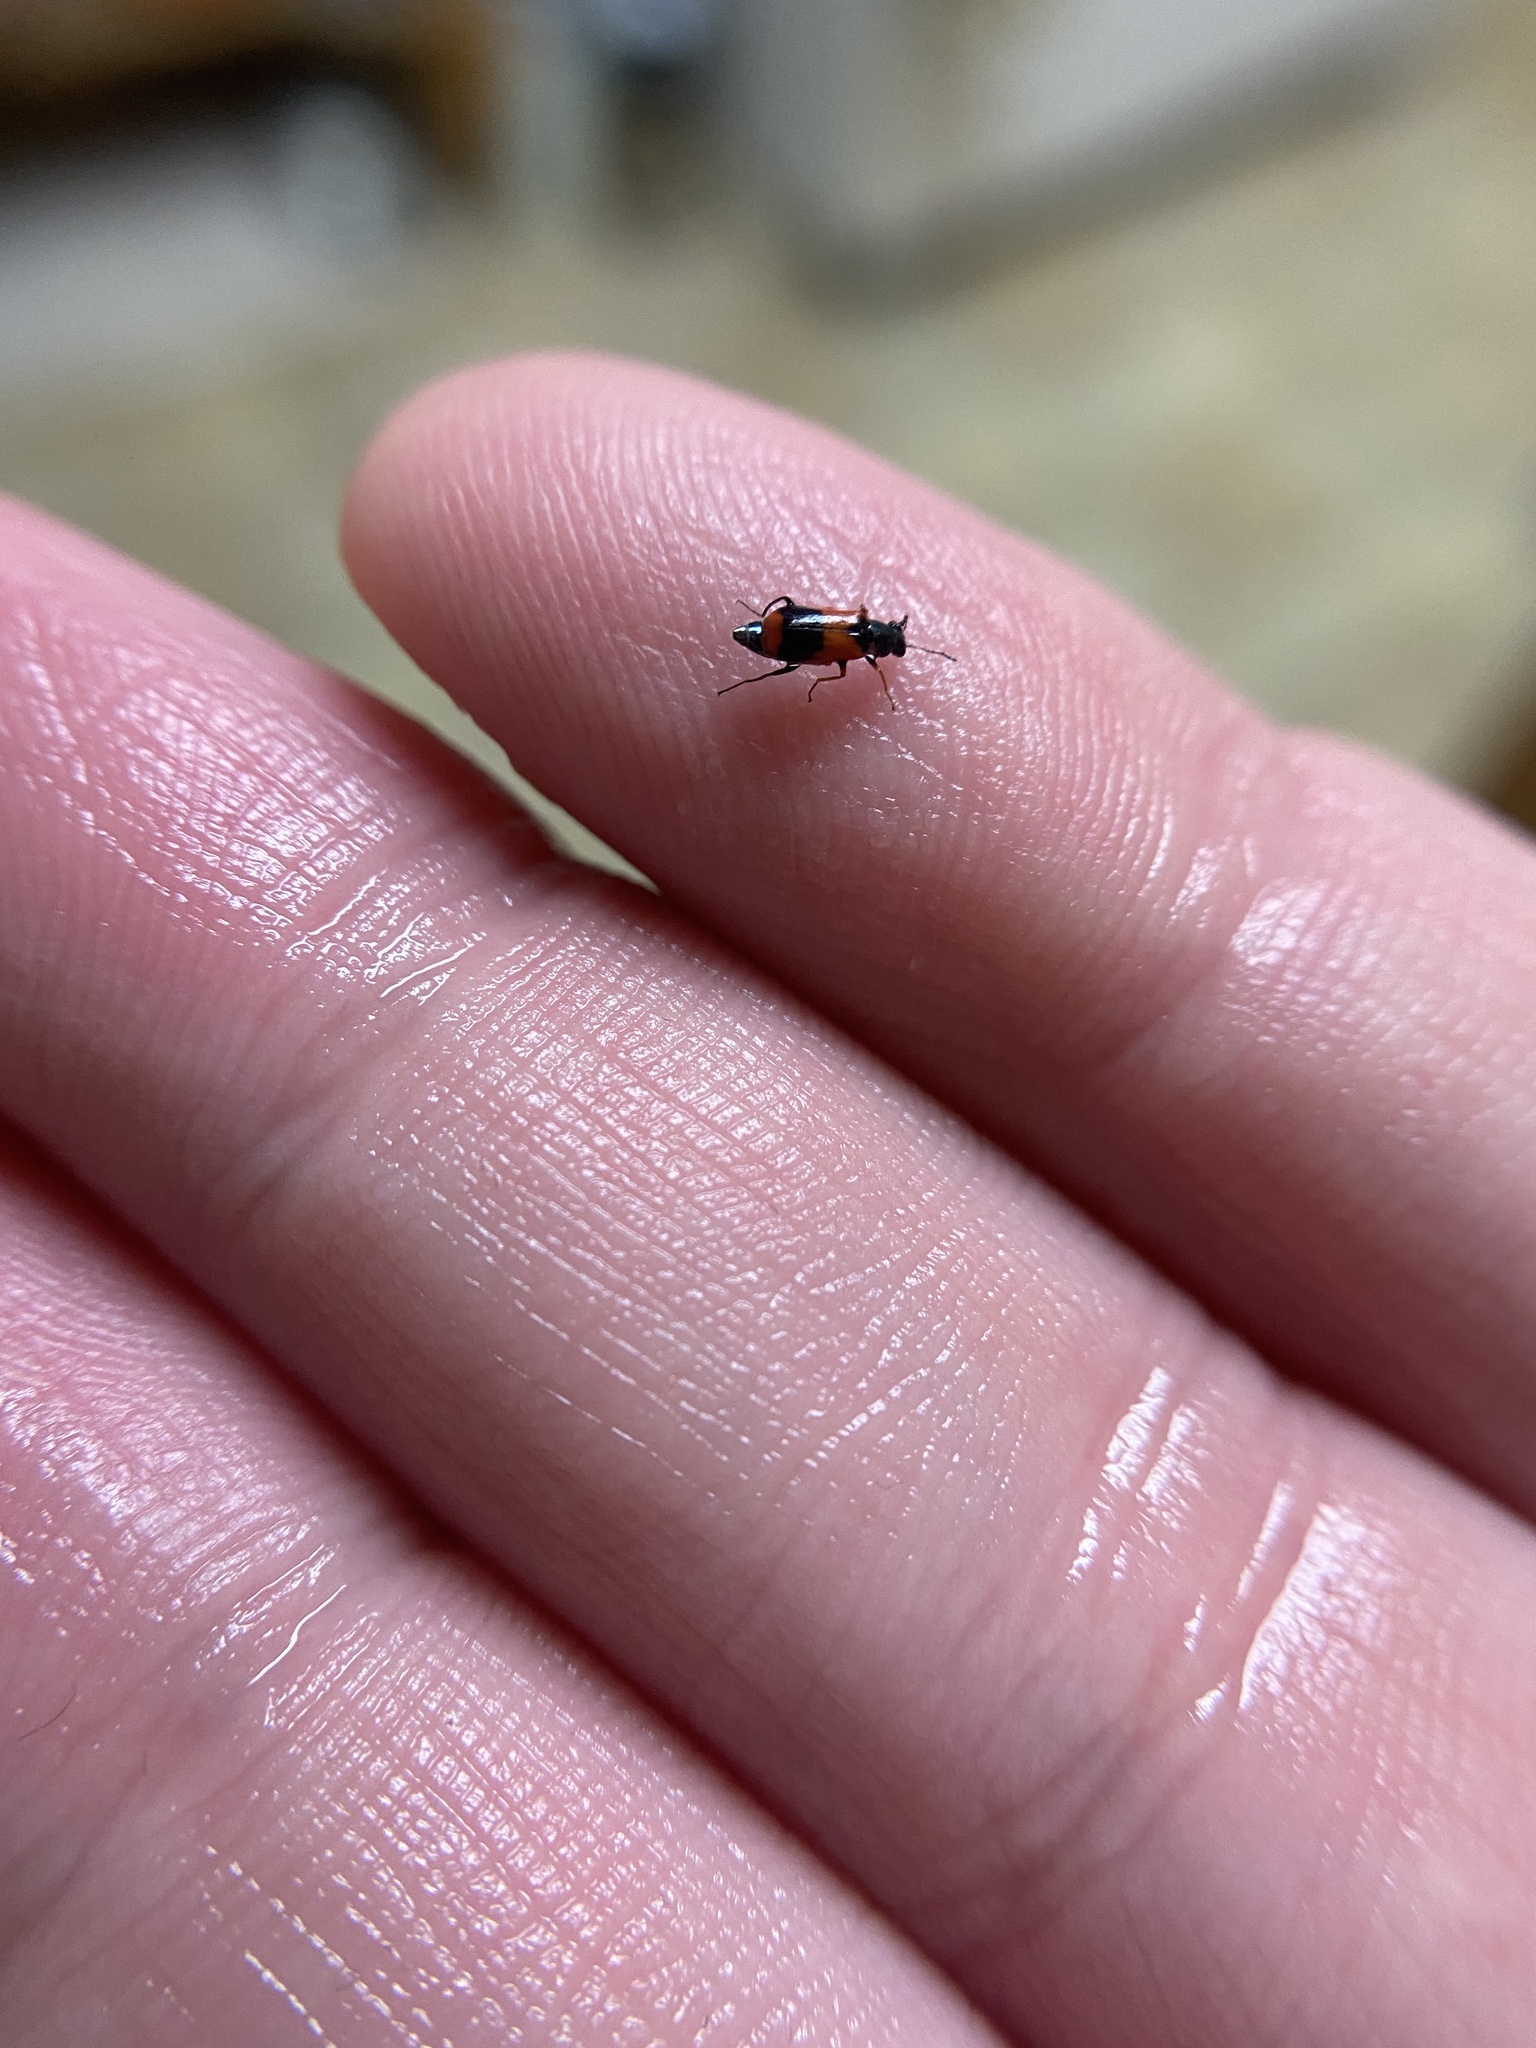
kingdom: Animalia
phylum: Arthropoda
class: Insecta
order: Coleoptera
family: Melyridae
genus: Anthocomus
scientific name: Anthocomus equestris
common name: Black-banded soft-winged flower beetle
